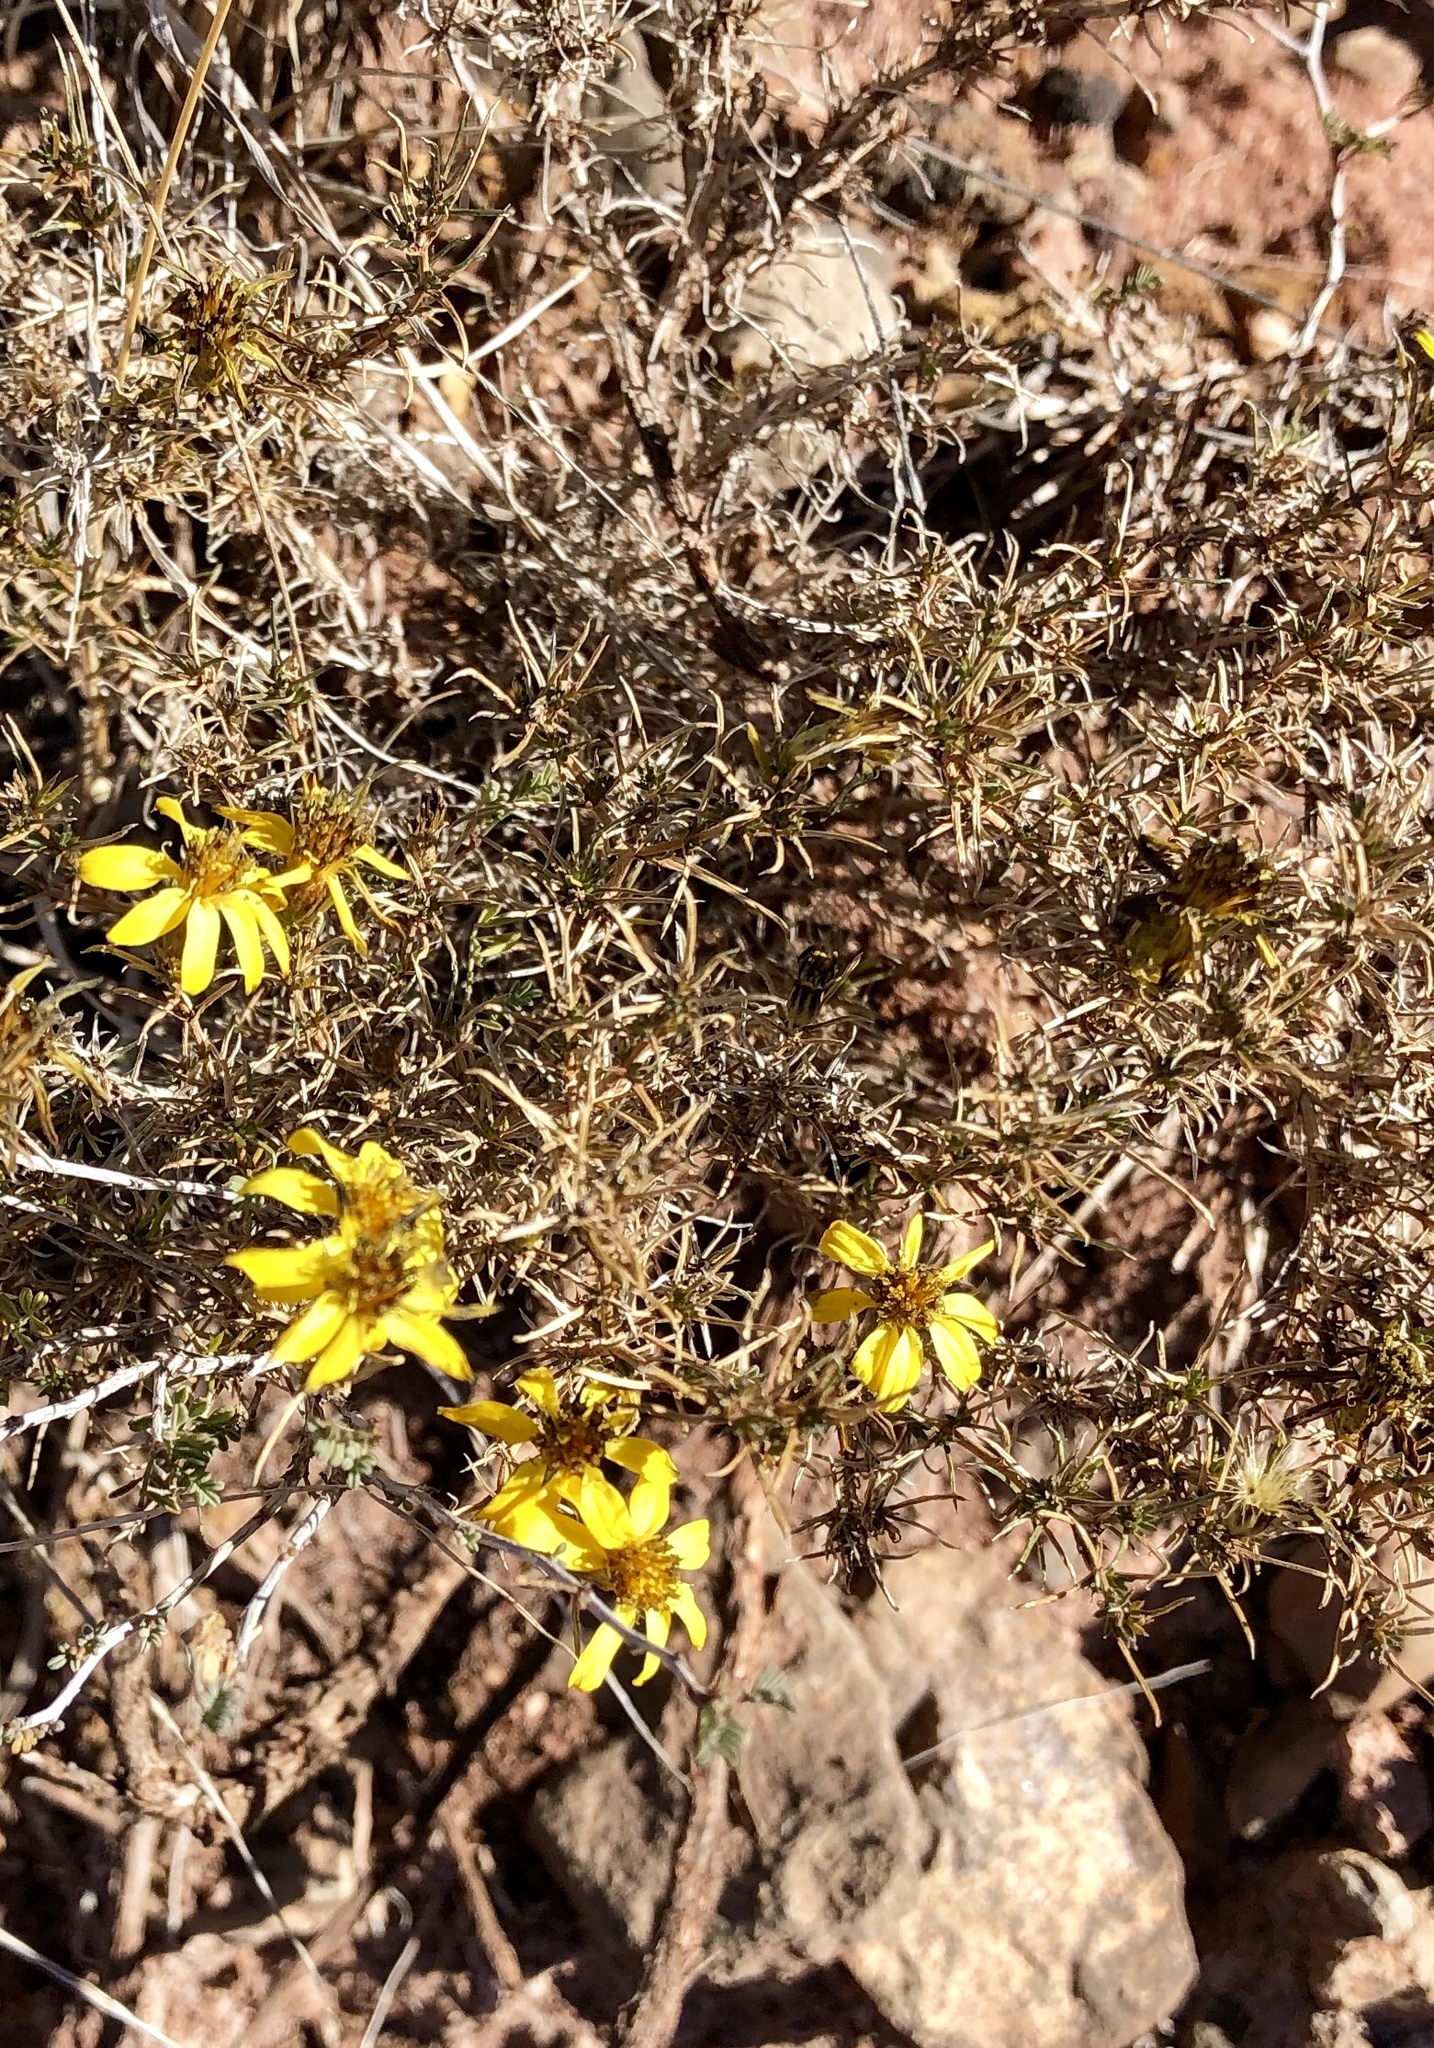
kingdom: Plantae
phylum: Tracheophyta
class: Magnoliopsida
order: Asterales
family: Asteraceae
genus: Thymophylla
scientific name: Thymophylla acerosa
